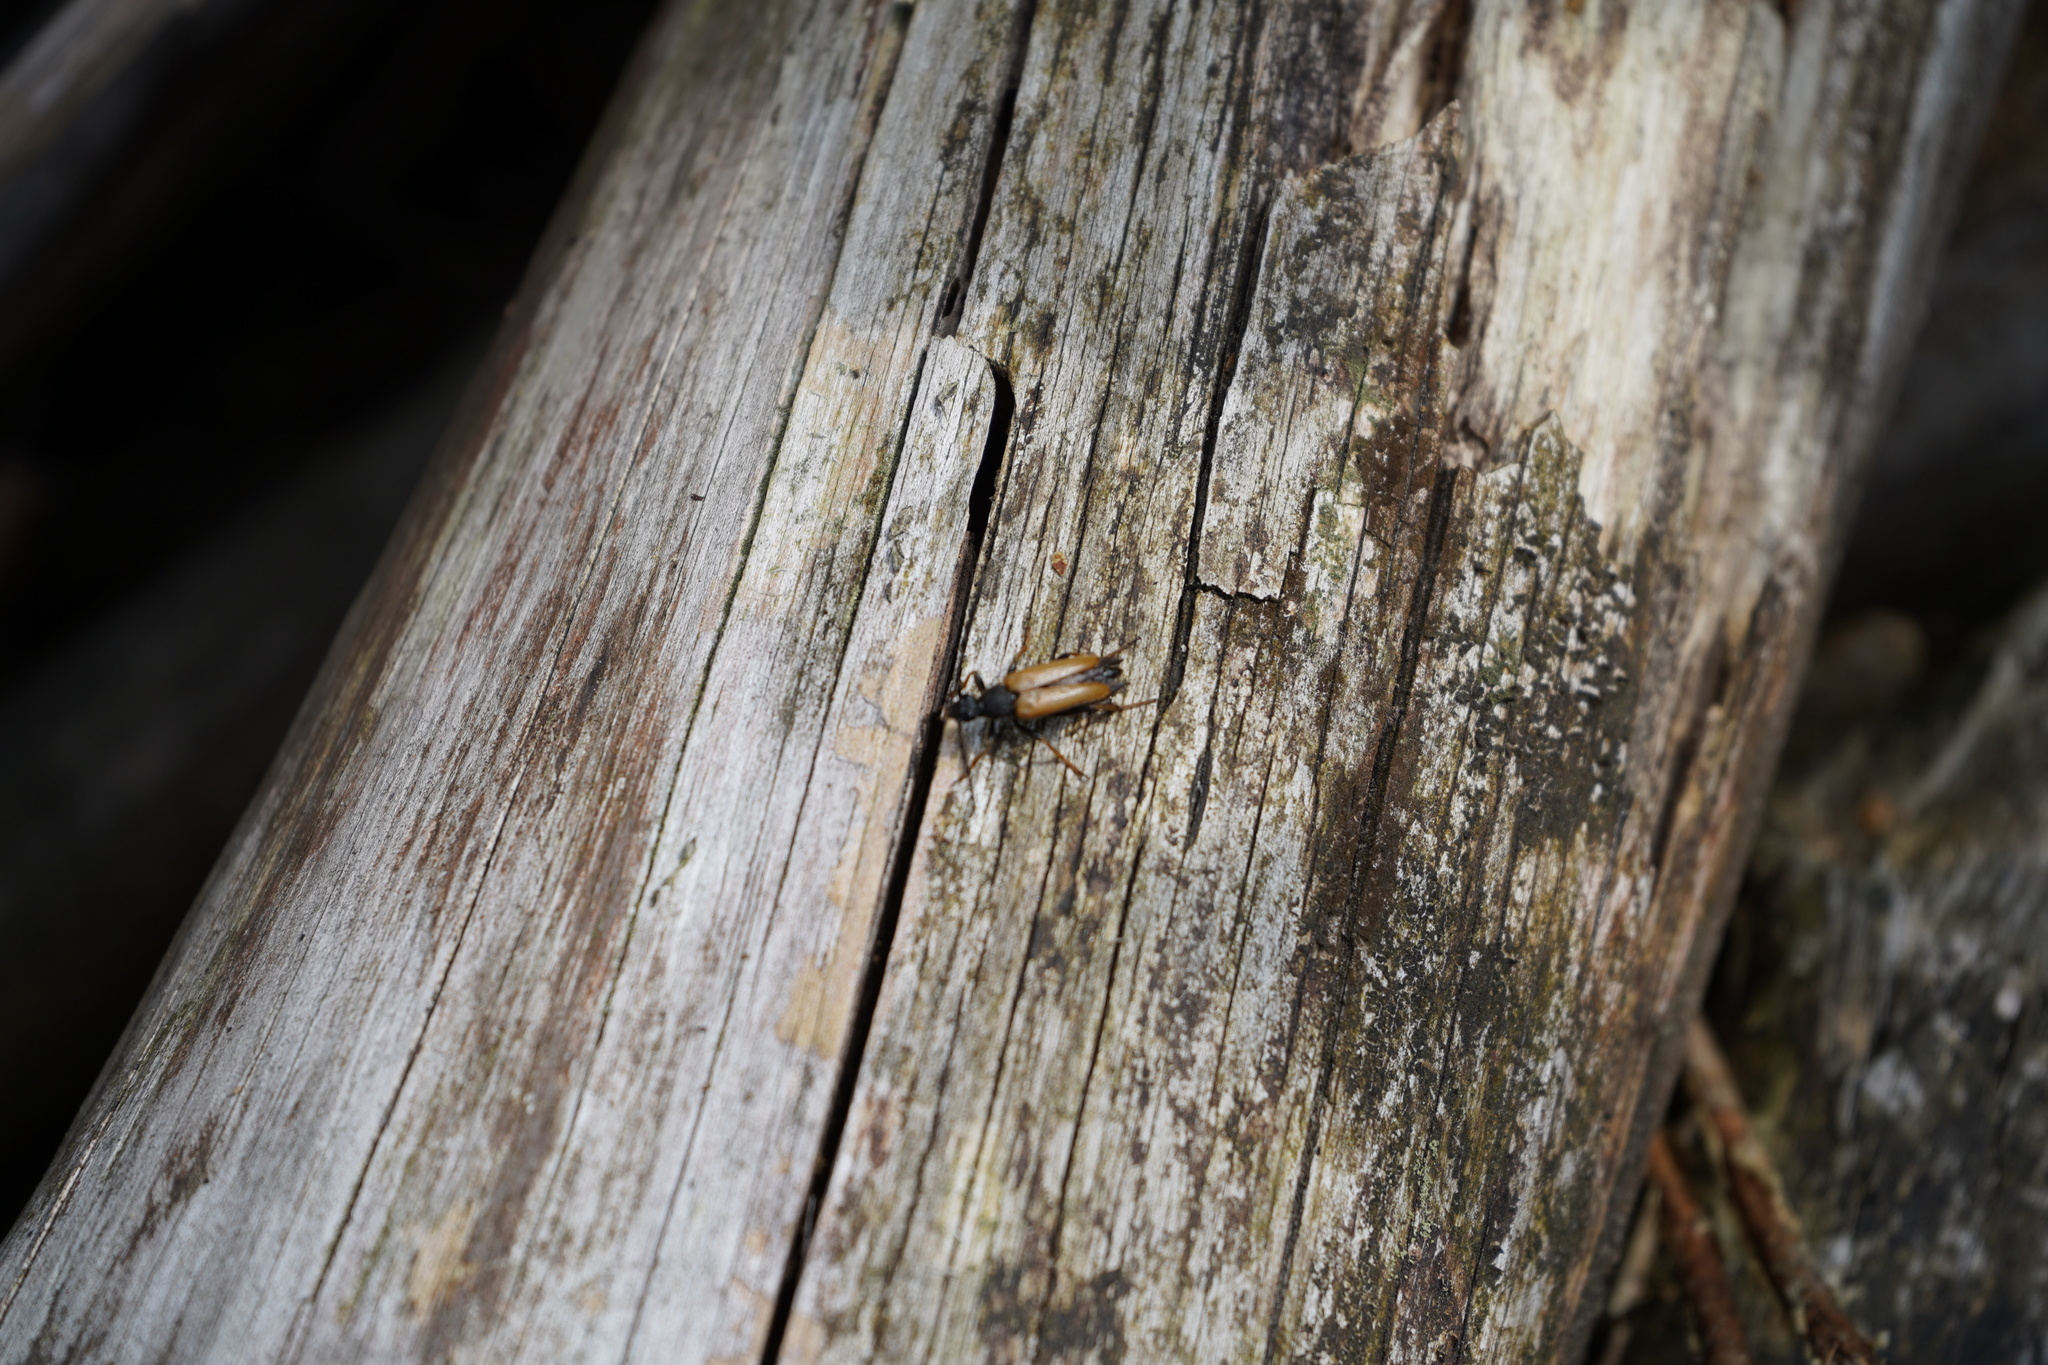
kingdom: Animalia
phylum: Arthropoda
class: Insecta
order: Coleoptera
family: Cerambycidae
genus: Stictoleptura
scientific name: Stictoleptura rubra
